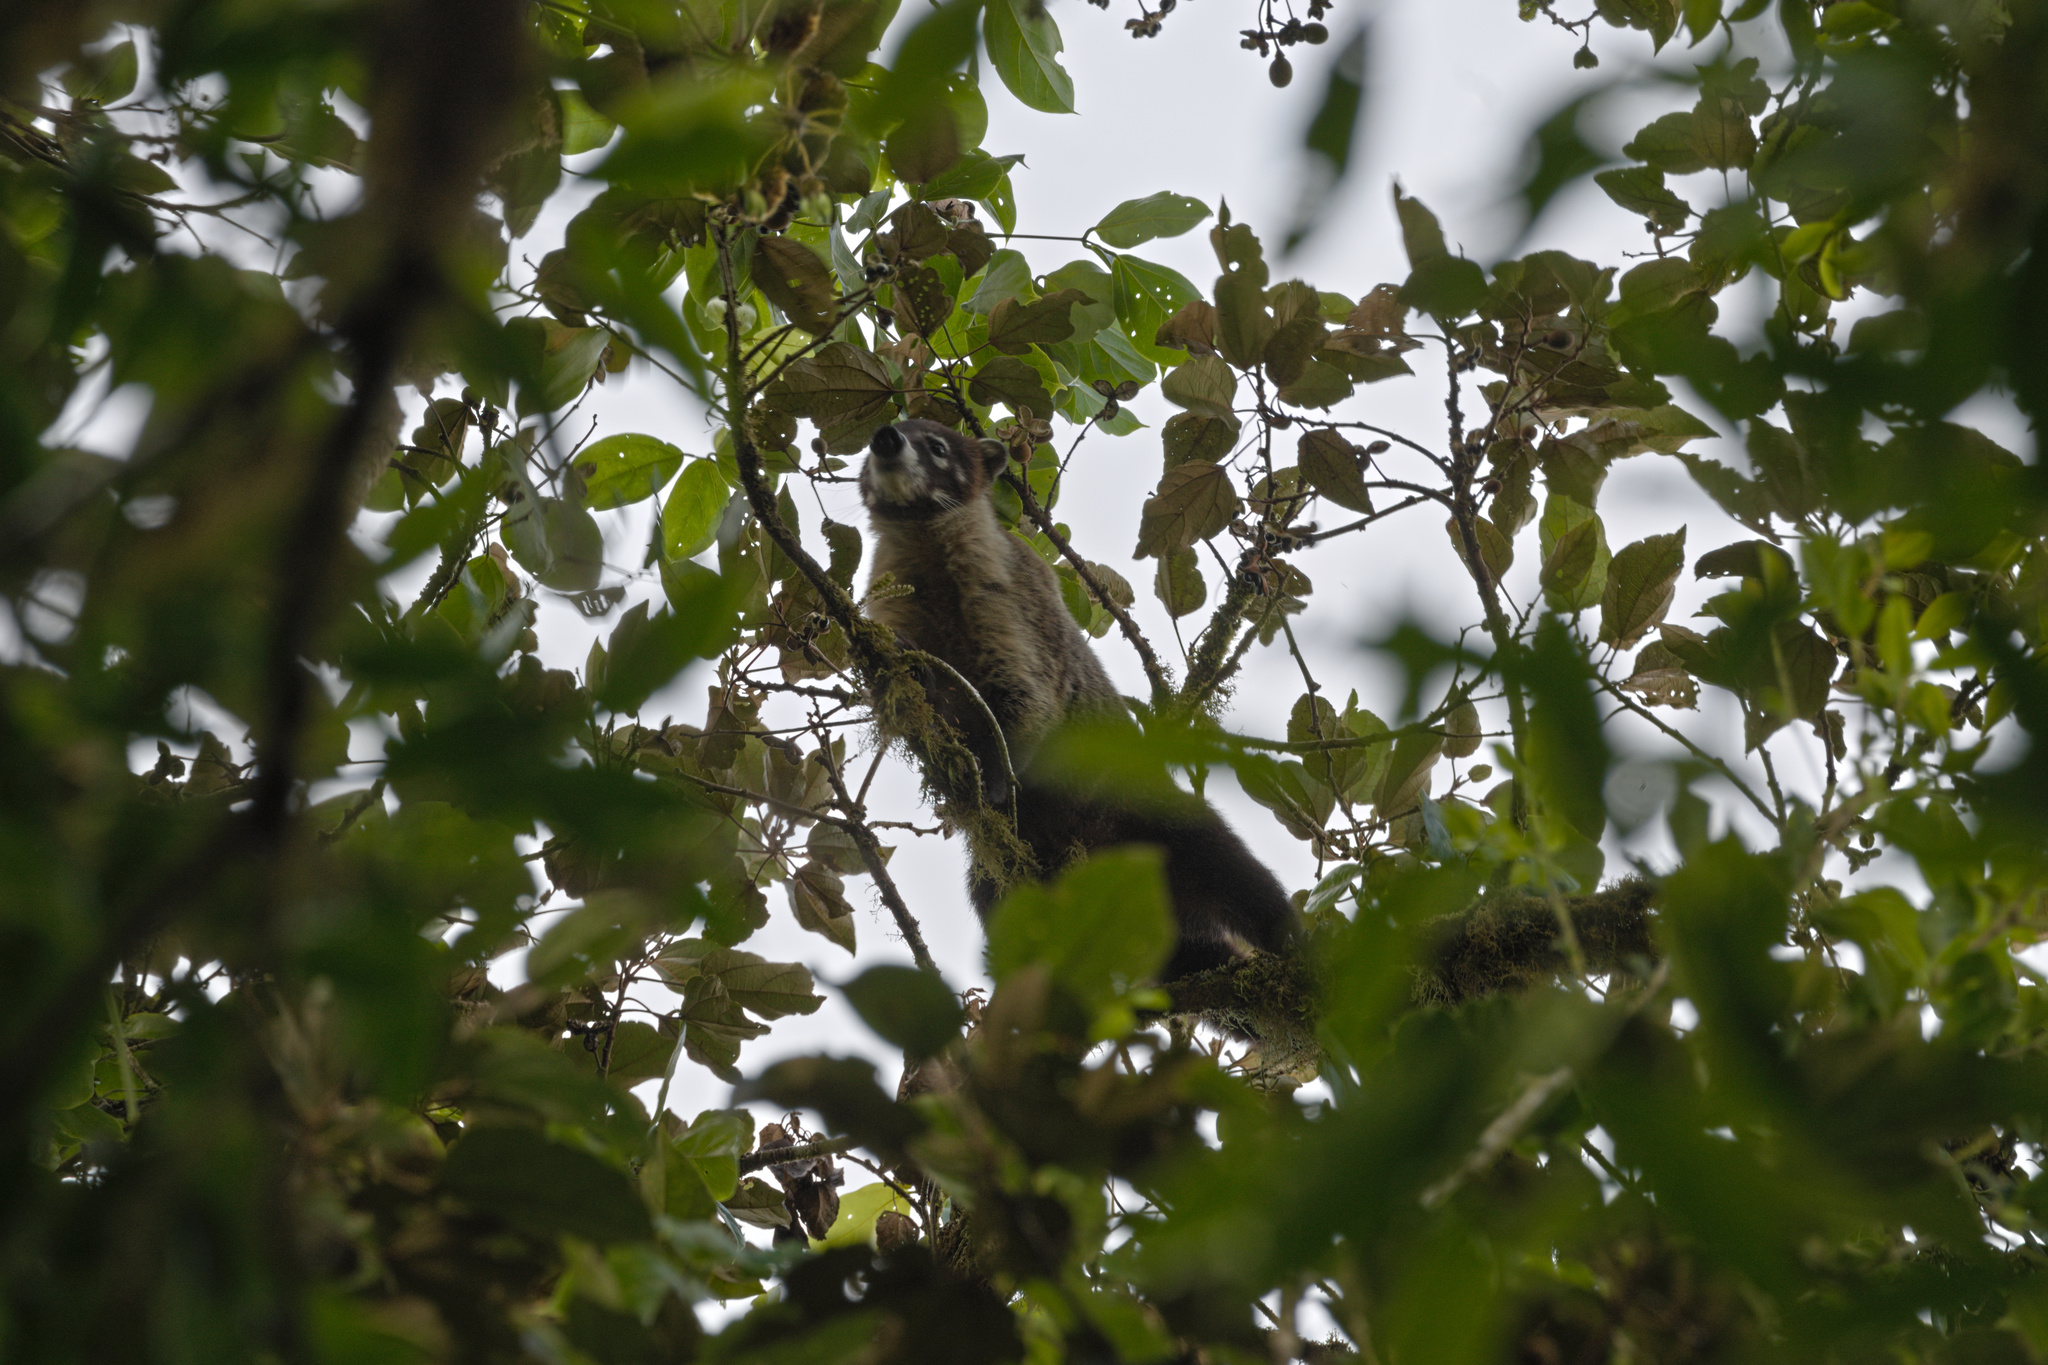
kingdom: Animalia
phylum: Chordata
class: Mammalia
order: Carnivora
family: Procyonidae
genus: Nasua
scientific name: Nasua narica
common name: White-nosed coati
